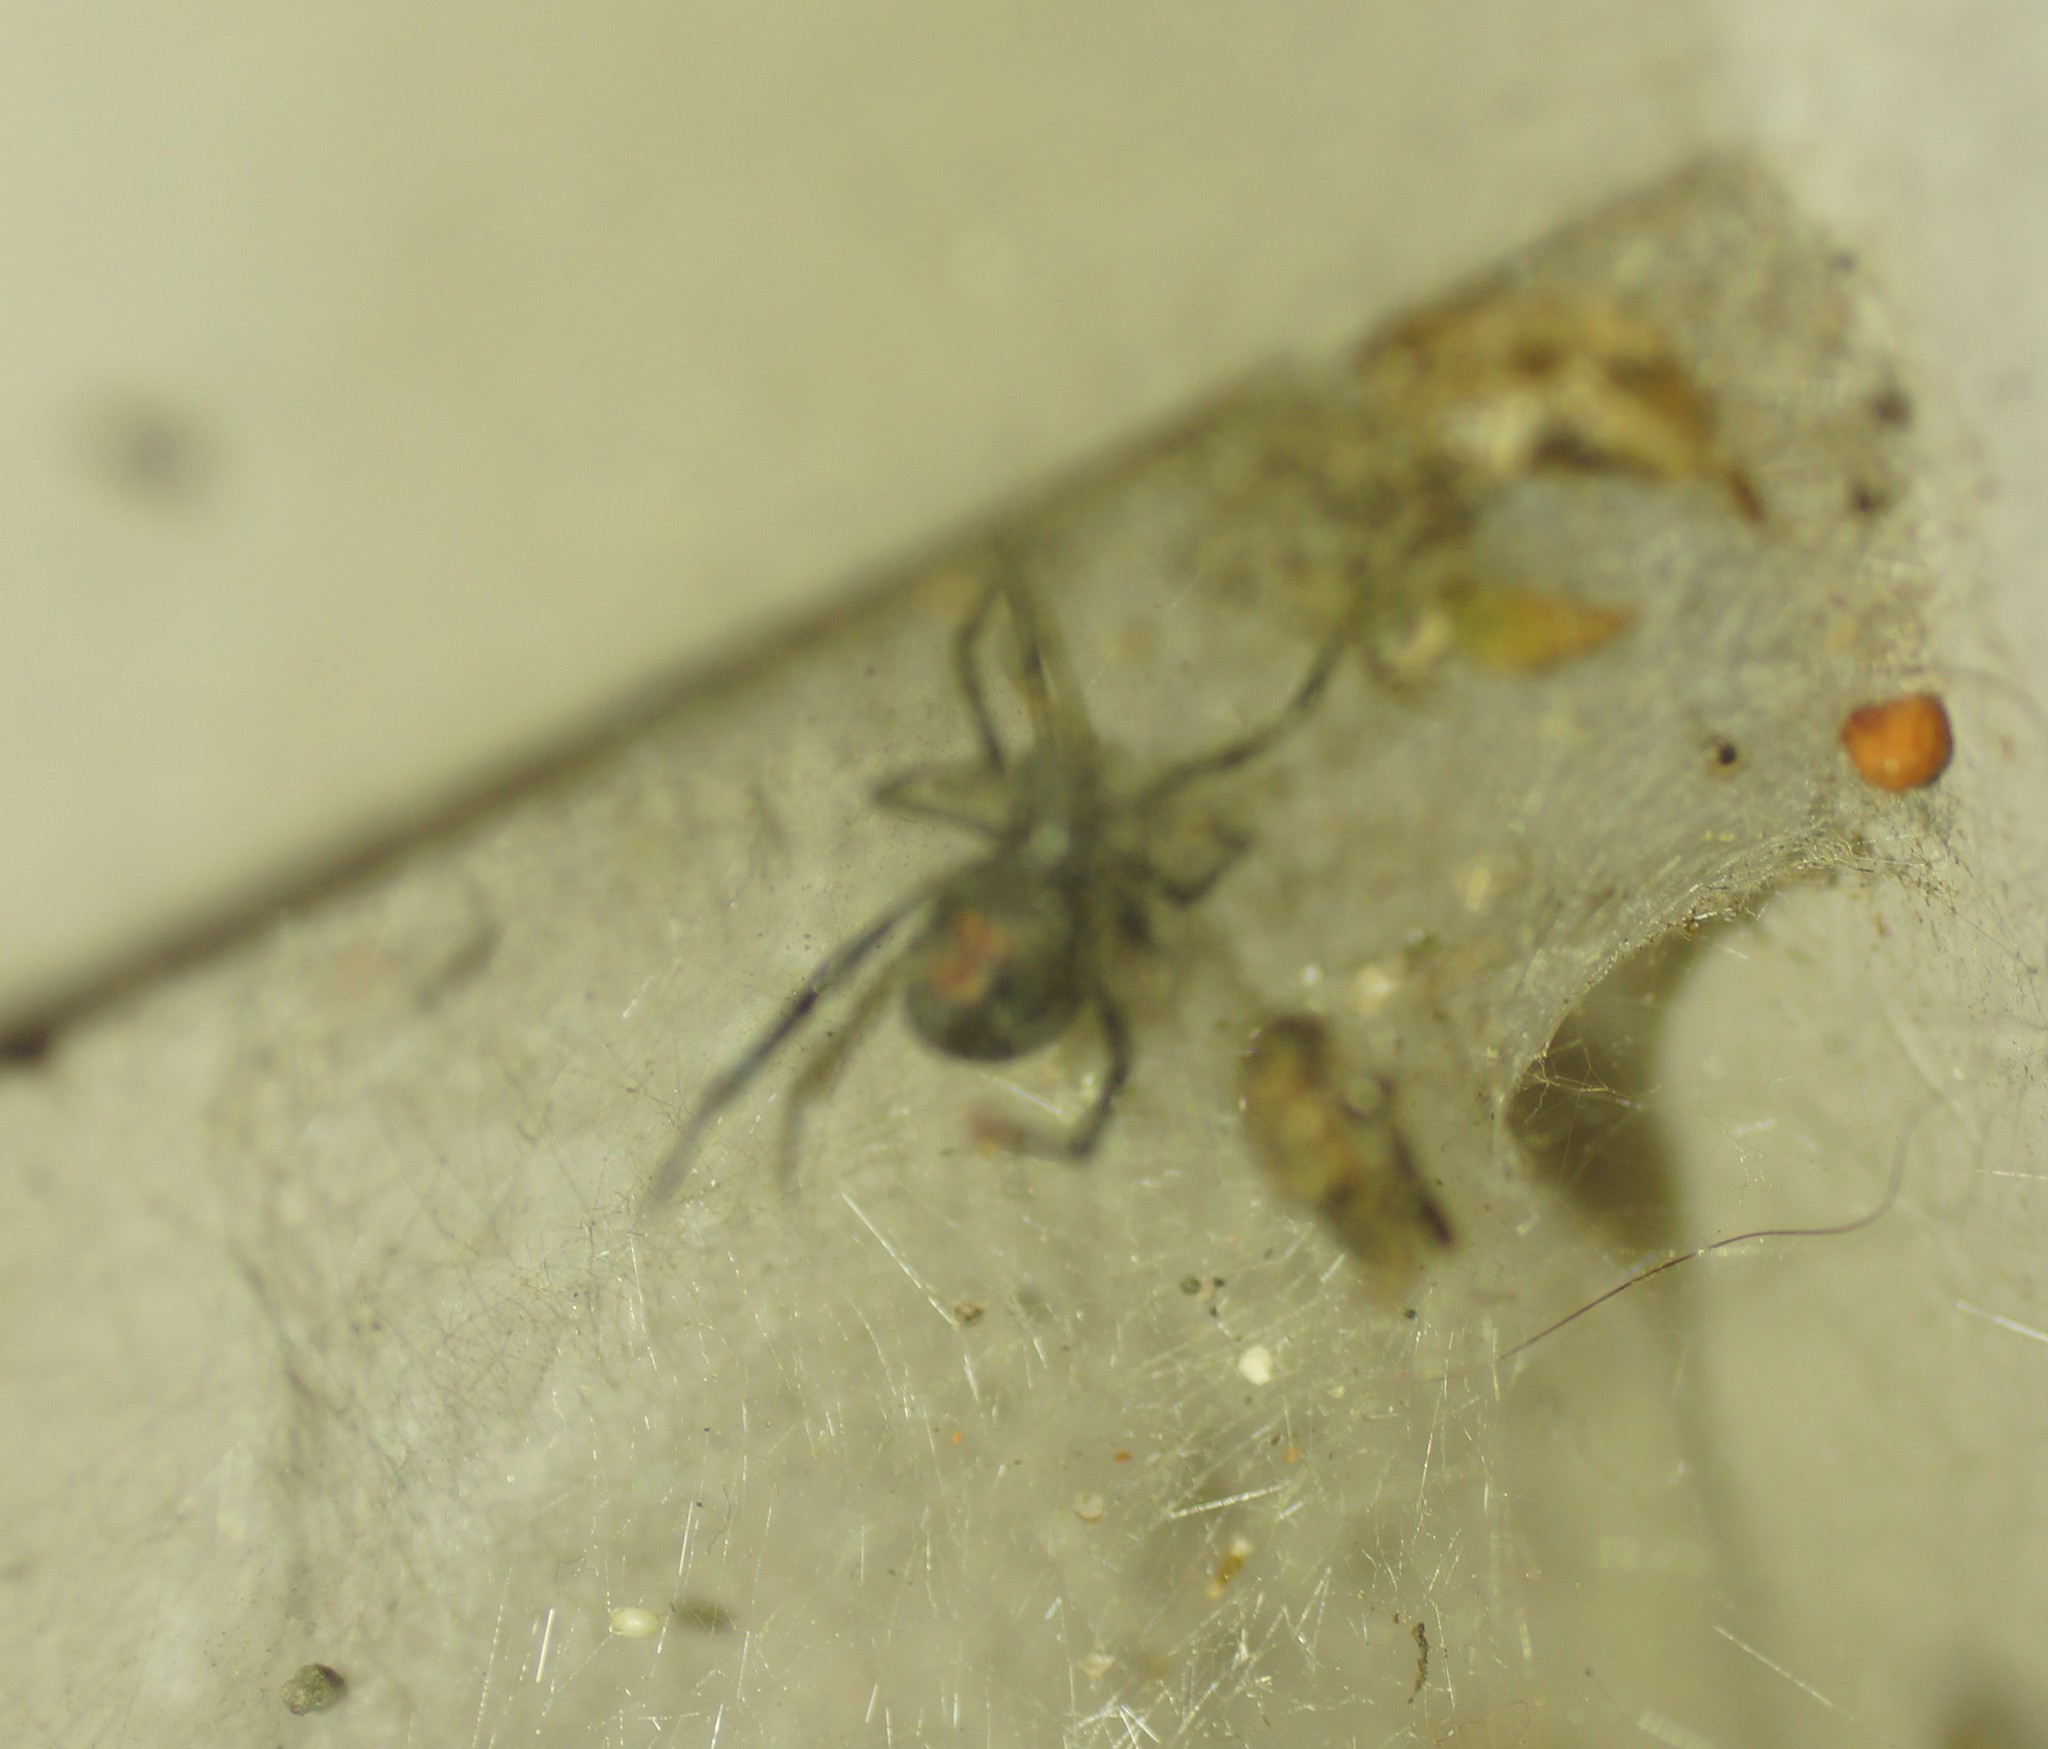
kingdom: Animalia
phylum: Arthropoda
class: Arachnida
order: Araneae
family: Theridiidae
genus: Latrodectus
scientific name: Latrodectus hasselti
